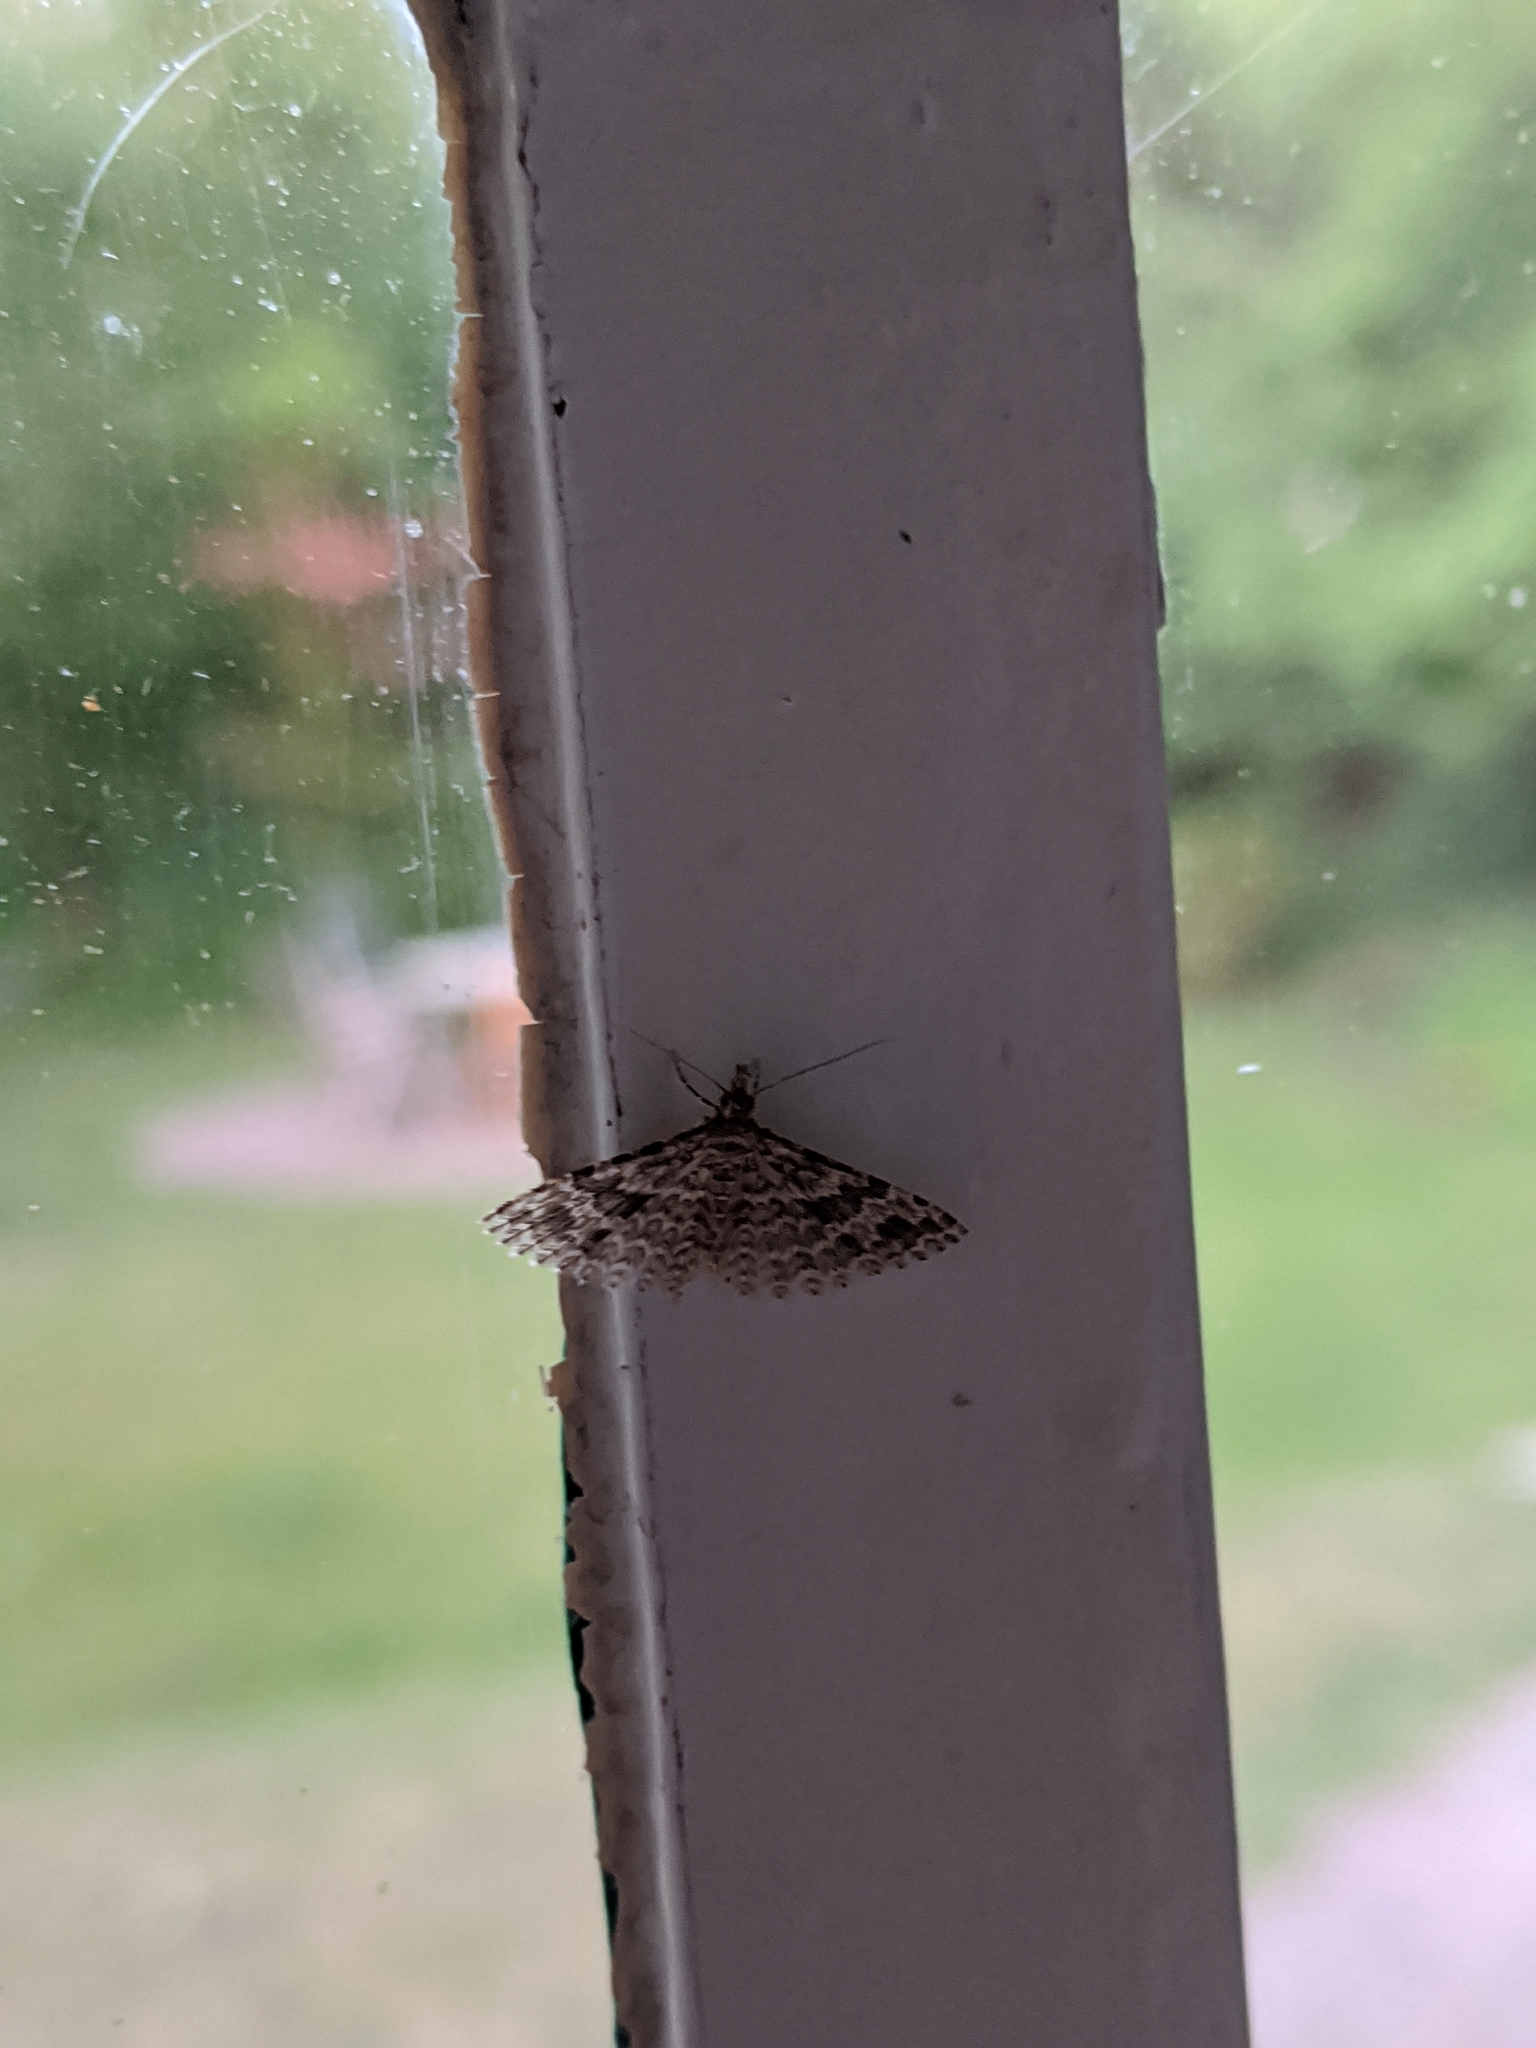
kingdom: Animalia
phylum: Arthropoda
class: Insecta
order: Lepidoptera
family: Alucitidae
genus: Alucita
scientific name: Alucita hexadactyla
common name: Twenty-plume moth
